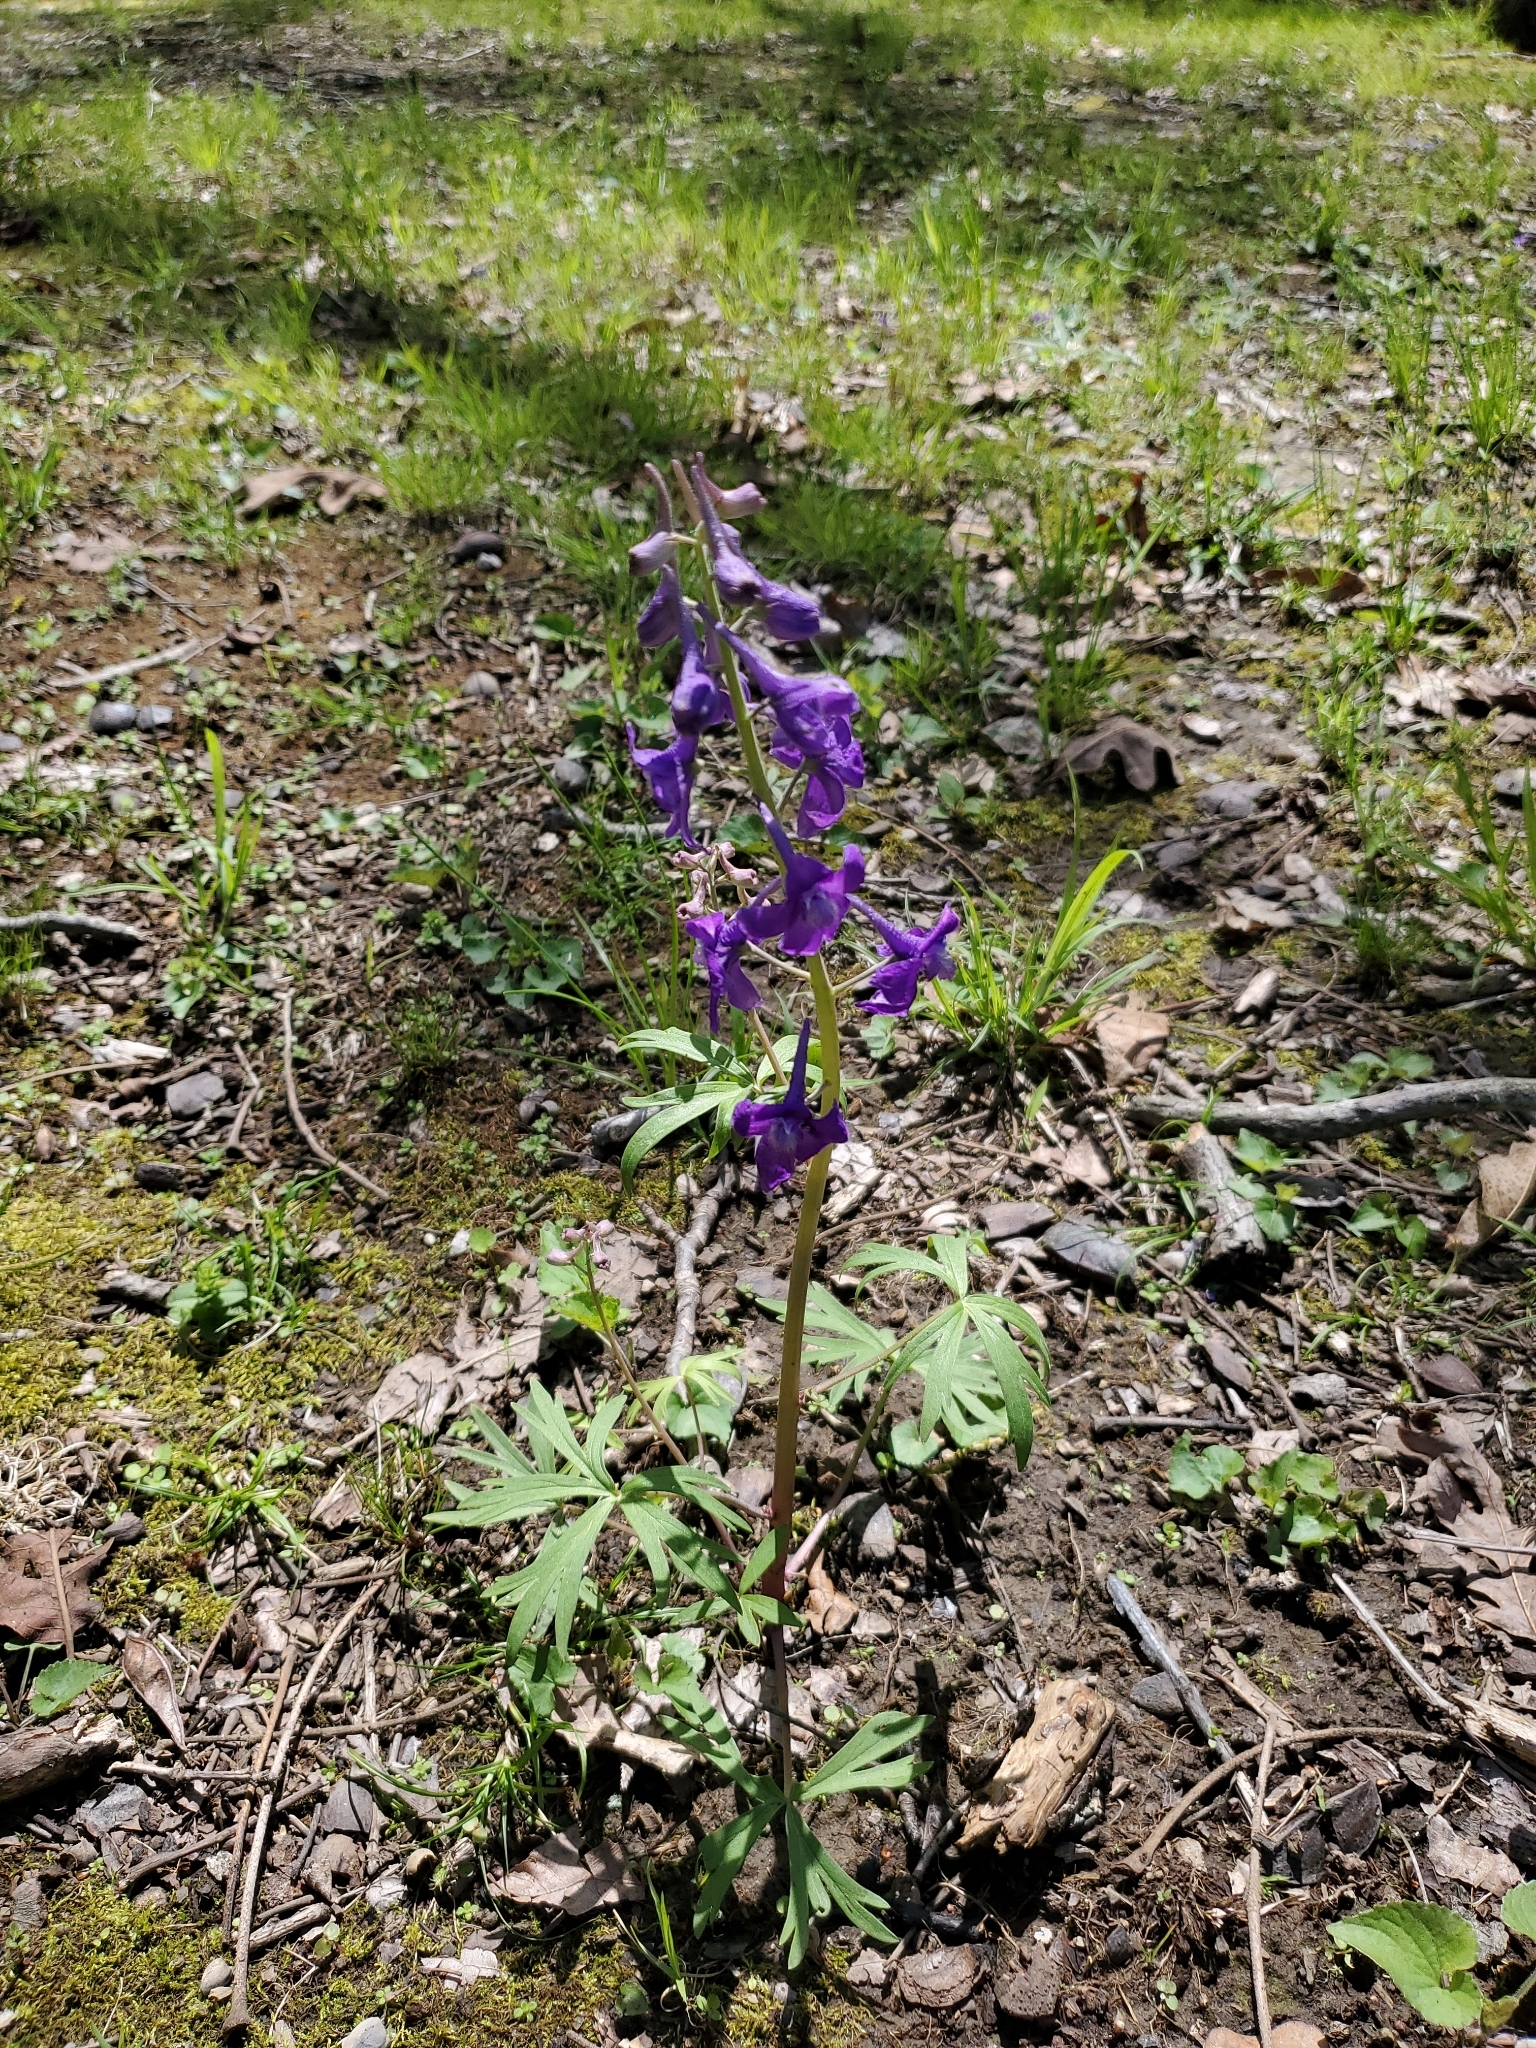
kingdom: Plantae
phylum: Tracheophyta
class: Magnoliopsida
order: Ranunculales
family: Ranunculaceae
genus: Delphinium
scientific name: Delphinium tricorne
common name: Dwarf larkspur
